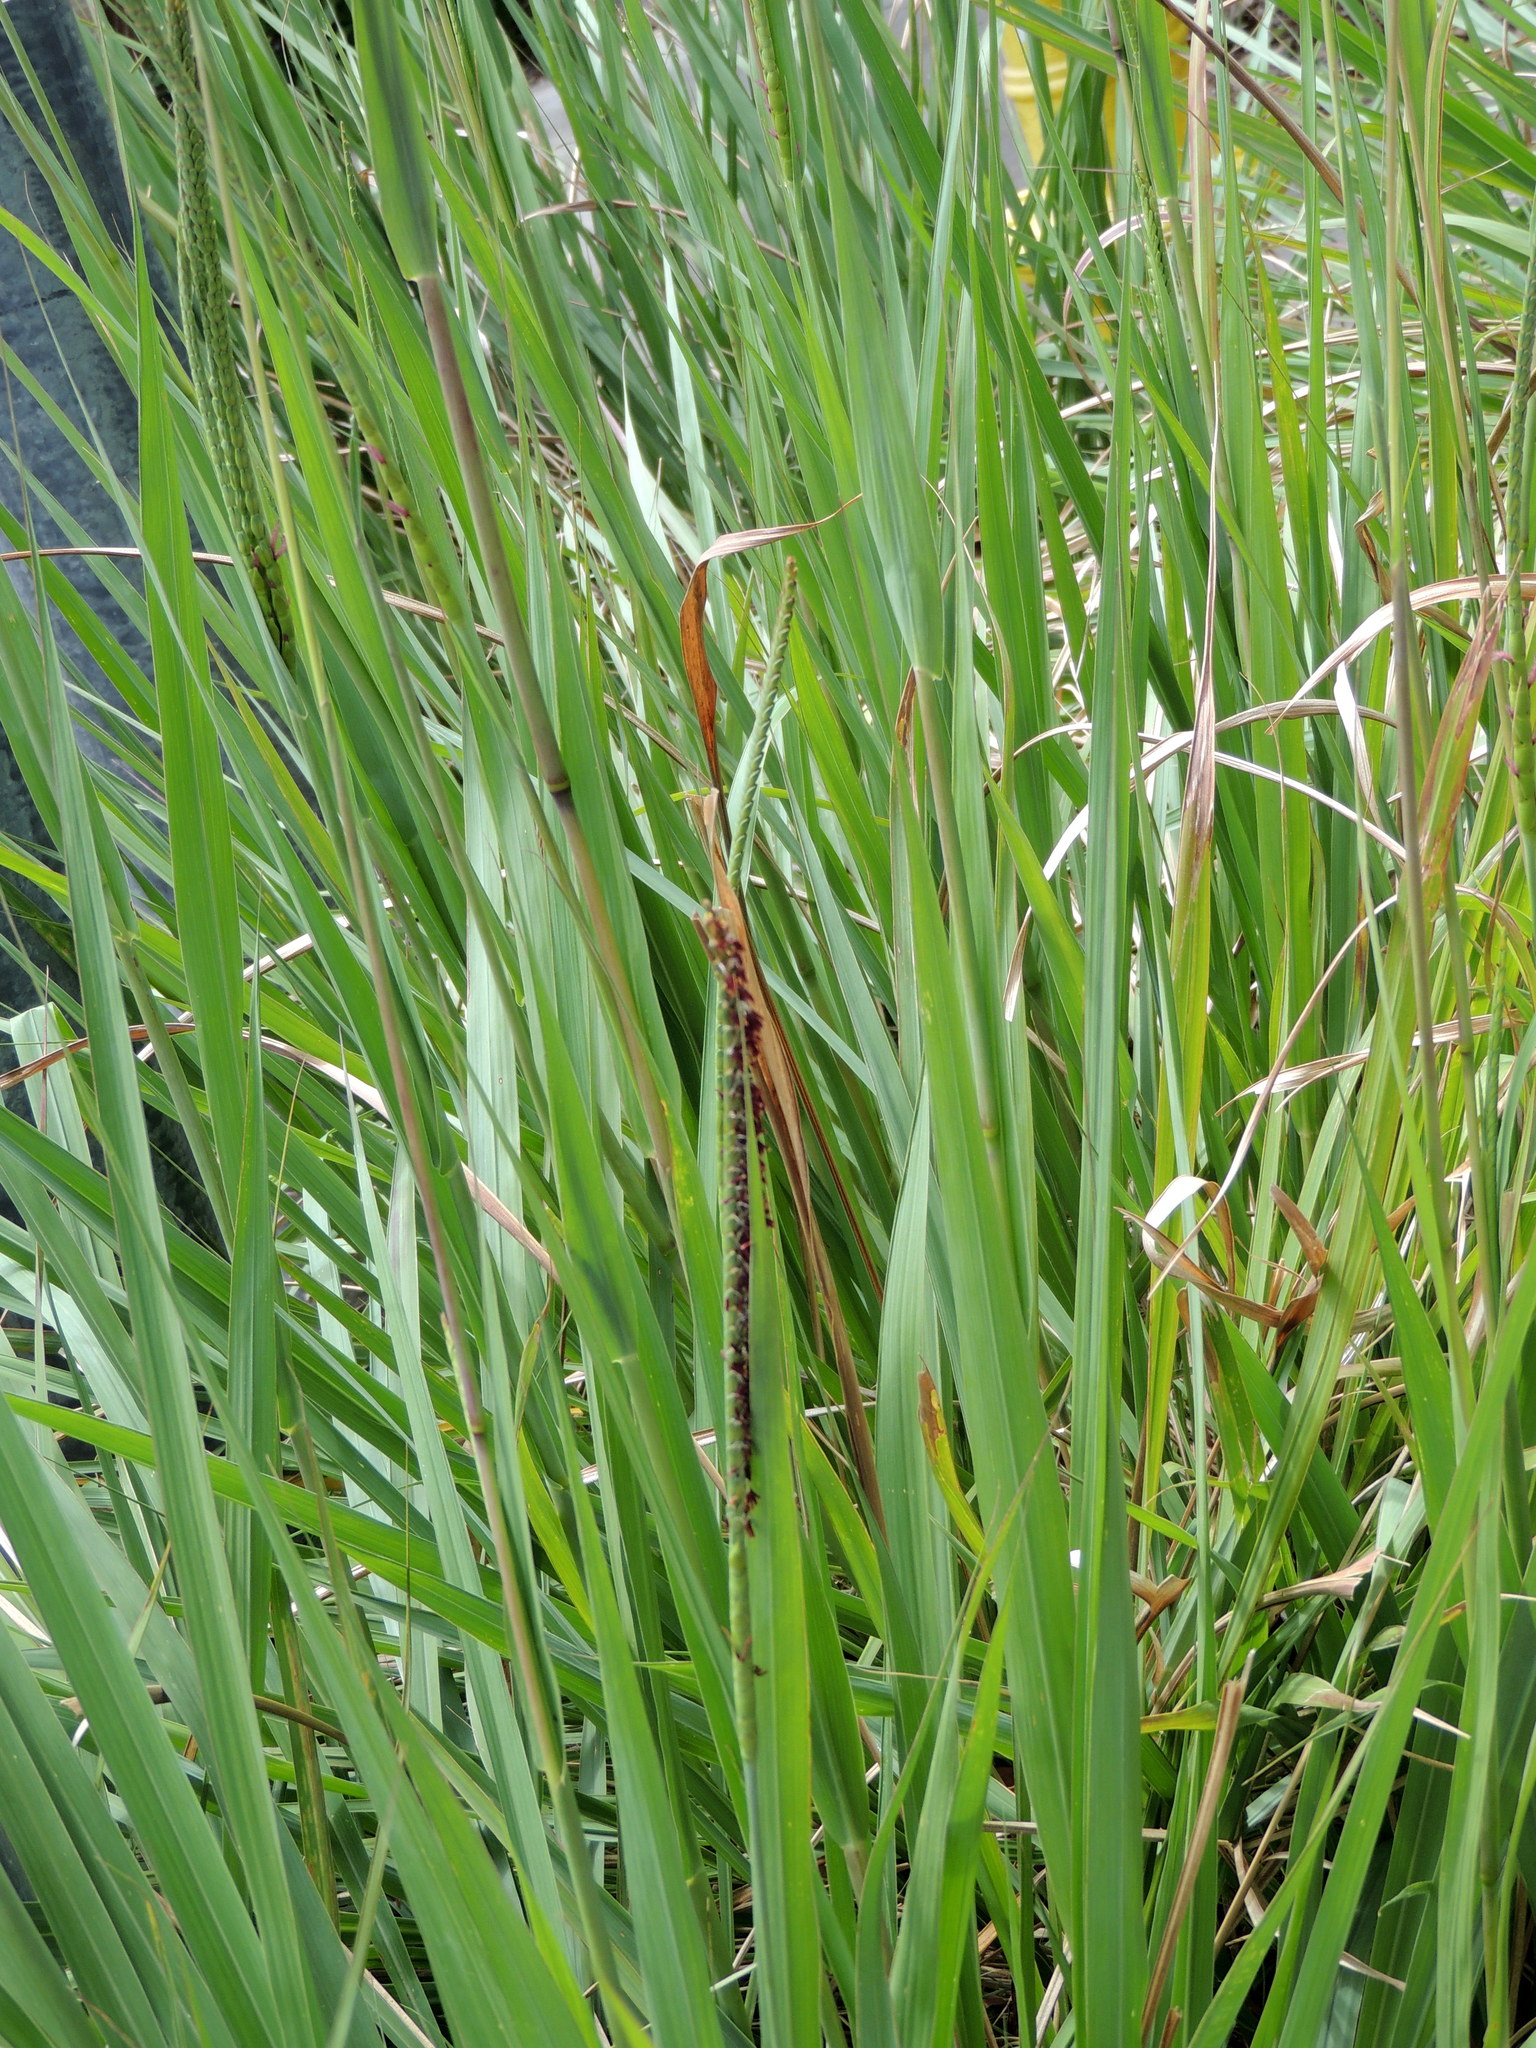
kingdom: Plantae
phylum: Tracheophyta
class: Liliopsida
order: Poales
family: Poaceae
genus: Tripsacum
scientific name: Tripsacum dactyloides
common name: Buffalo-grass
